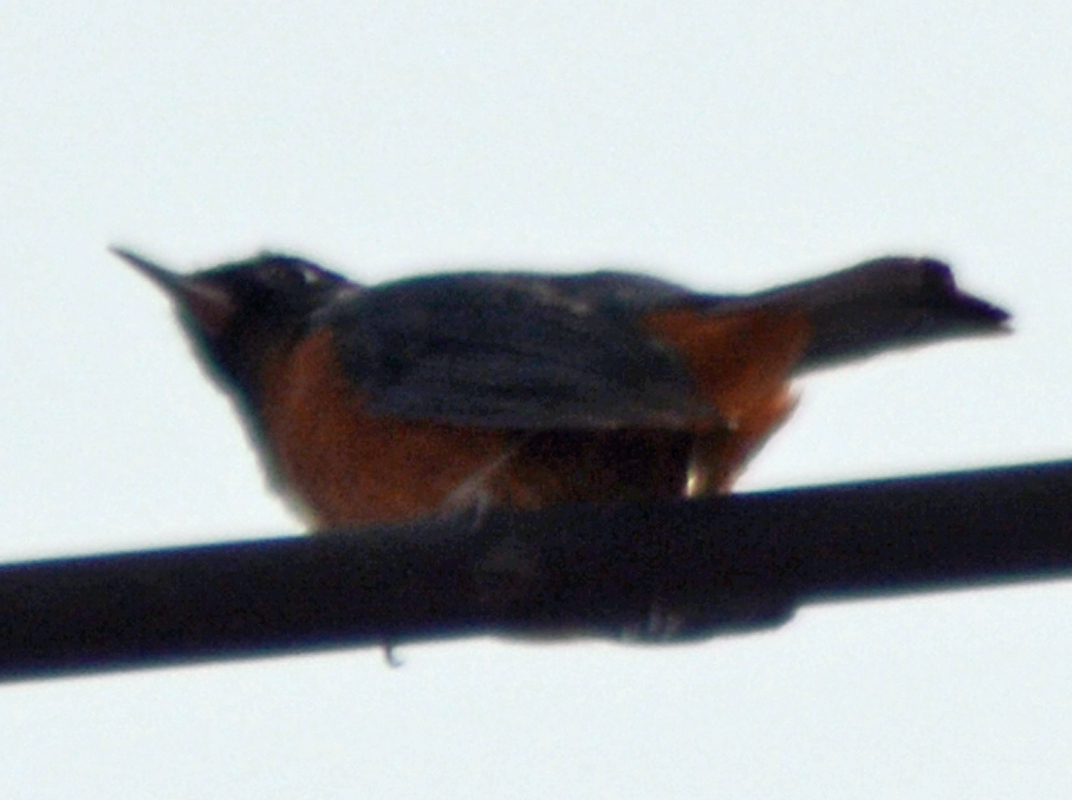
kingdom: Animalia
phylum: Chordata
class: Aves
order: Passeriformes
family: Thraupidae
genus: Diglossa
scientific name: Diglossa baritula
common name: Cinnamon-bellied flowerpiercer
